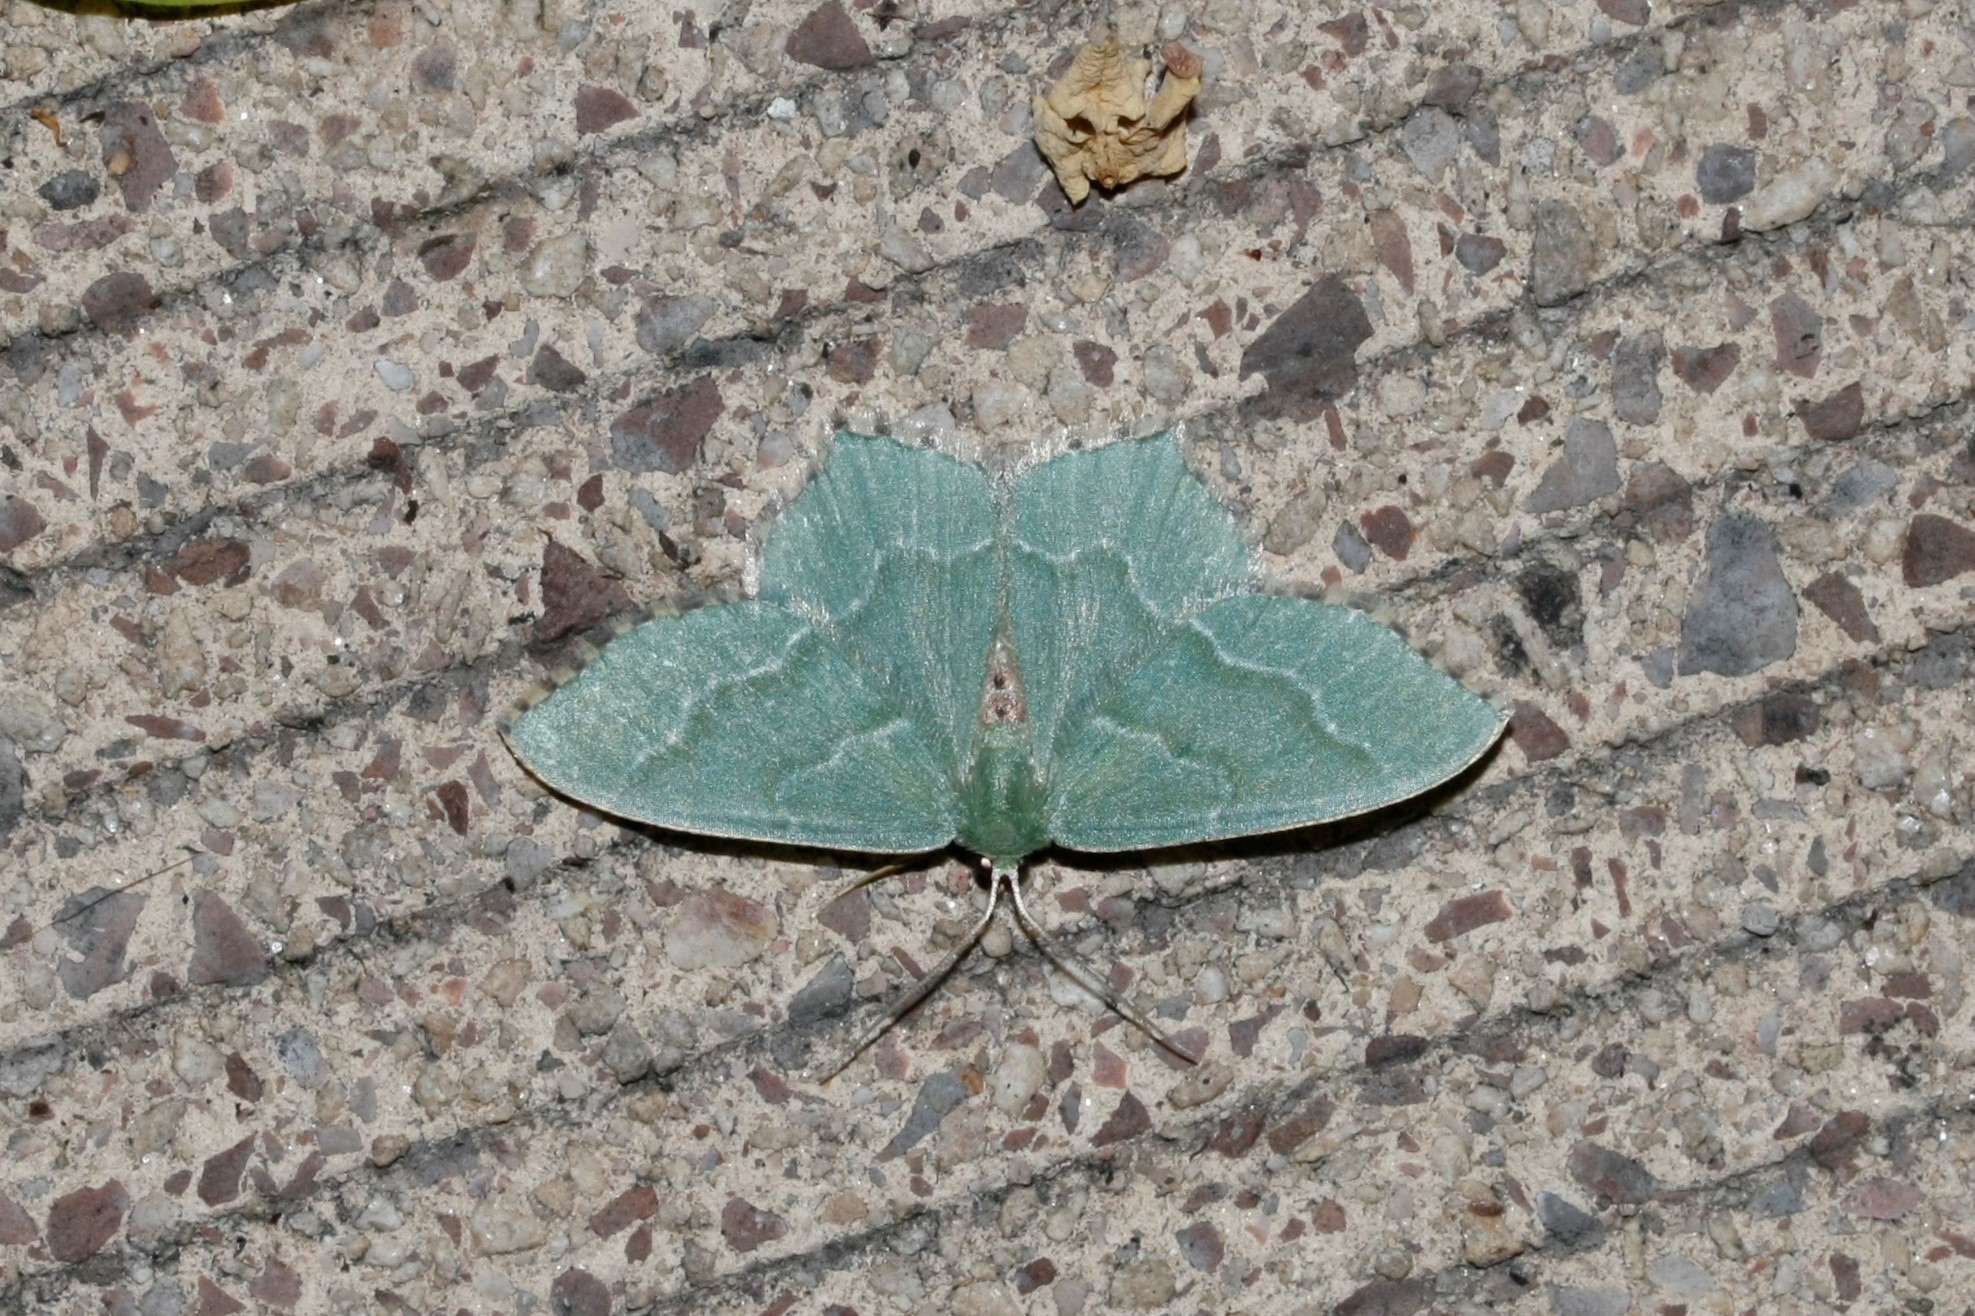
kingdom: Animalia
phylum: Arthropoda
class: Insecta
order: Lepidoptera
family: Geometridae
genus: Hemithea
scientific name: Hemithea aestivaria
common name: Common emerald
